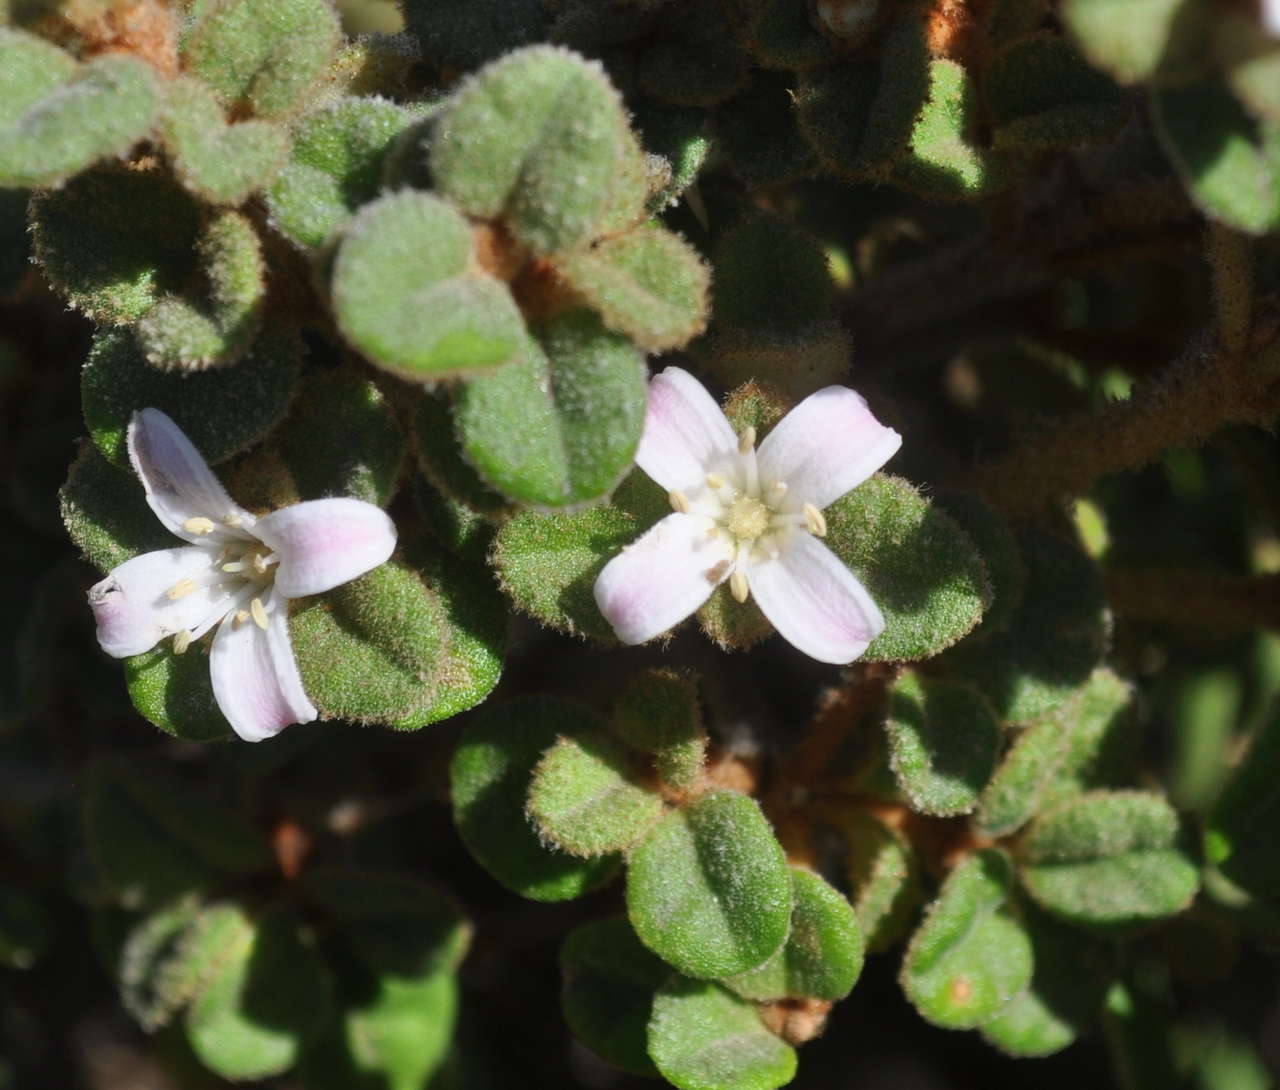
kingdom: Plantae
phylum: Tracheophyta
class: Magnoliopsida
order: Sapindales
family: Rutaceae
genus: Correa
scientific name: Correa alba
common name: White correa
